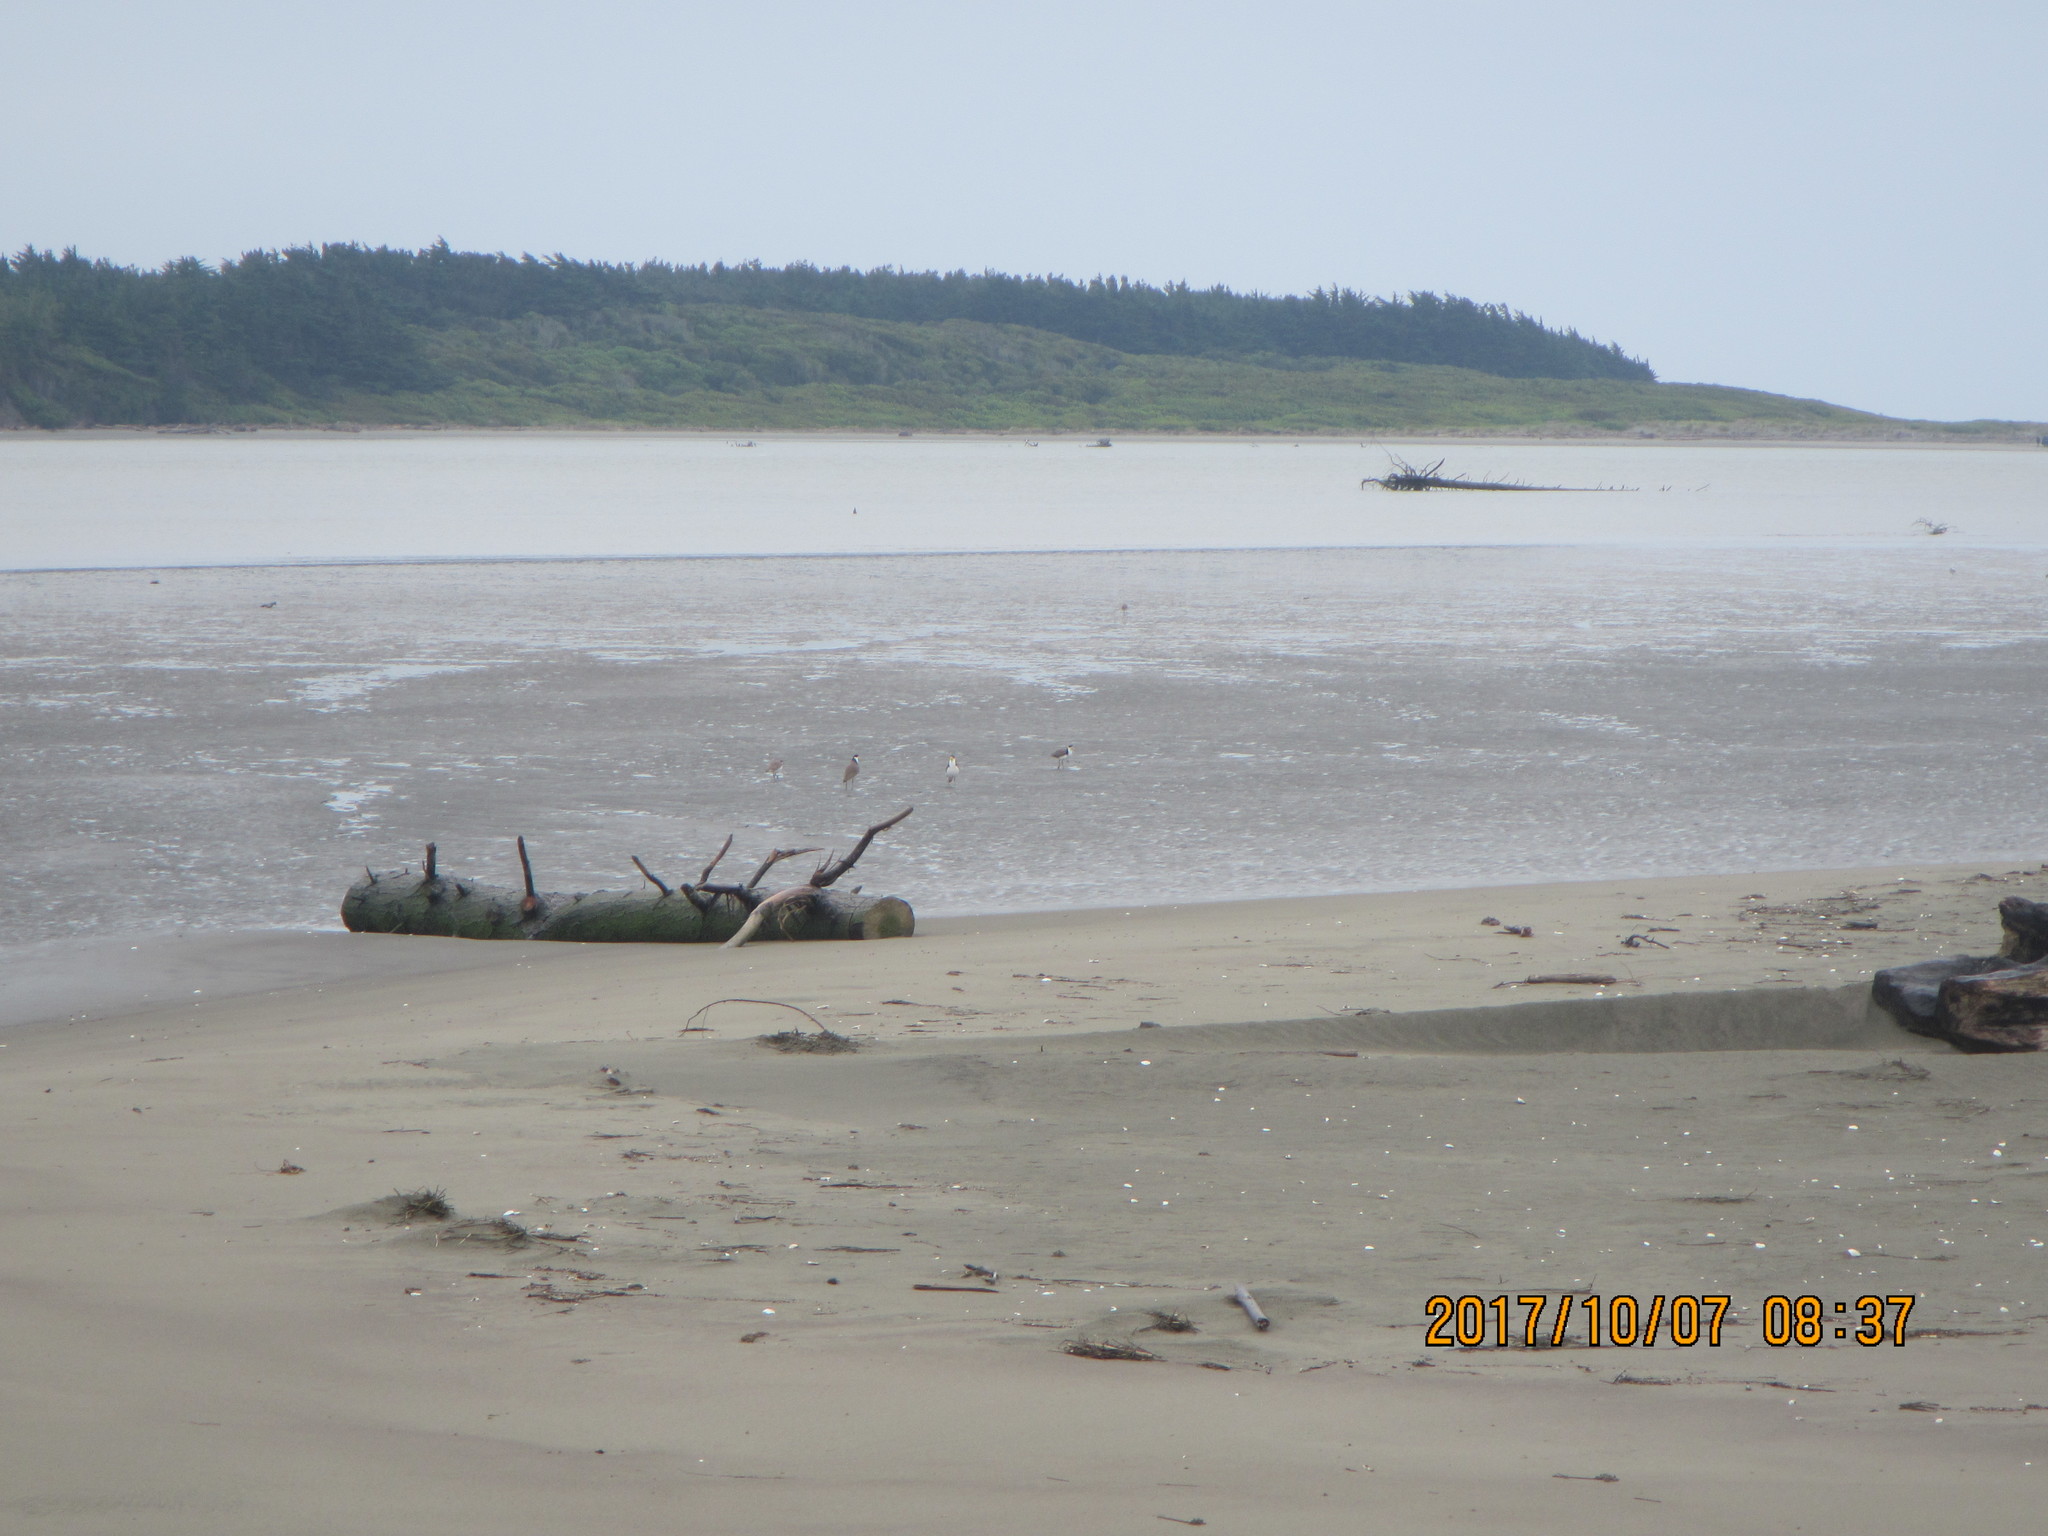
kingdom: Animalia
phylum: Chordata
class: Aves
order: Charadriiformes
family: Charadriidae
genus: Vanellus
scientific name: Vanellus miles
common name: Masked lapwing
